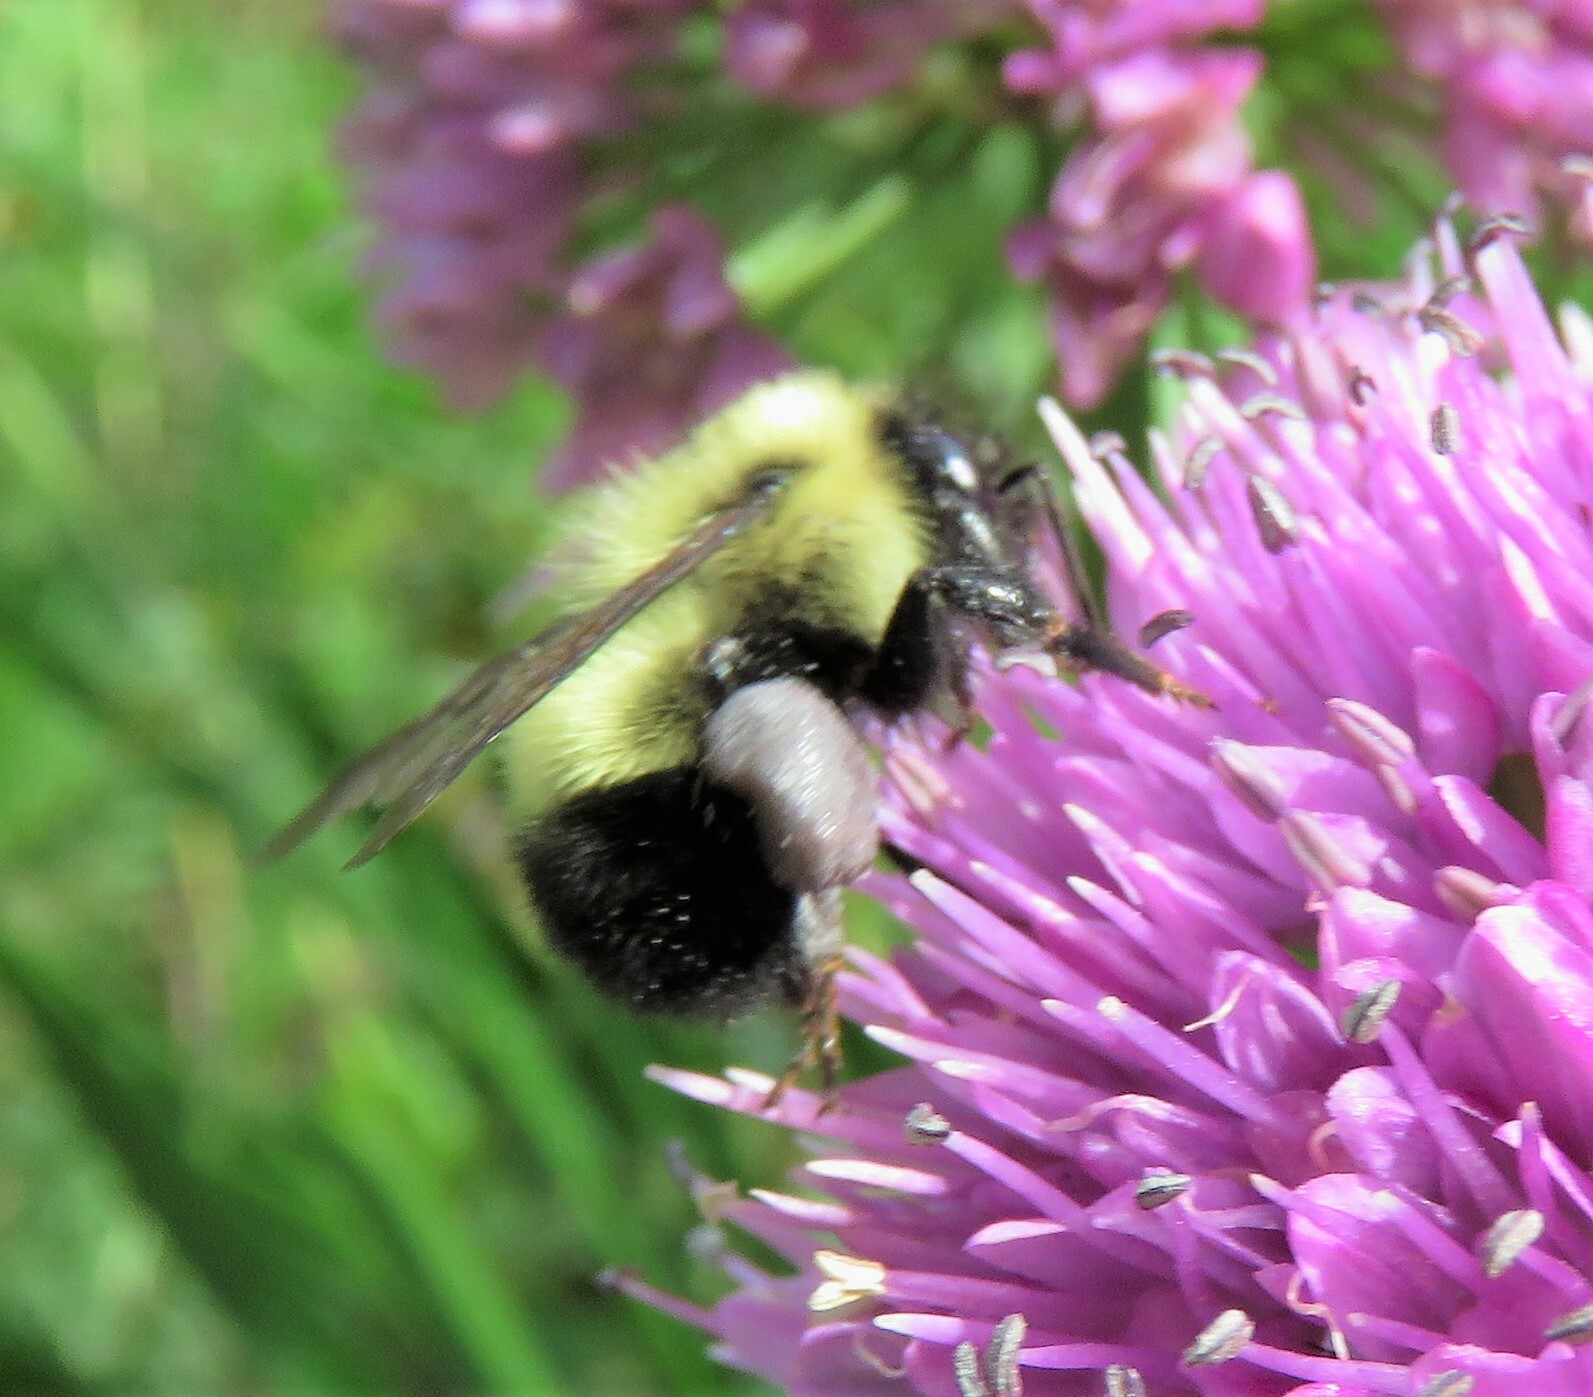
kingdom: Animalia
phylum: Arthropoda
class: Insecta
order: Hymenoptera
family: Apidae
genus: Bombus
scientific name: Bombus vagans
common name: Half-black bumble bee
